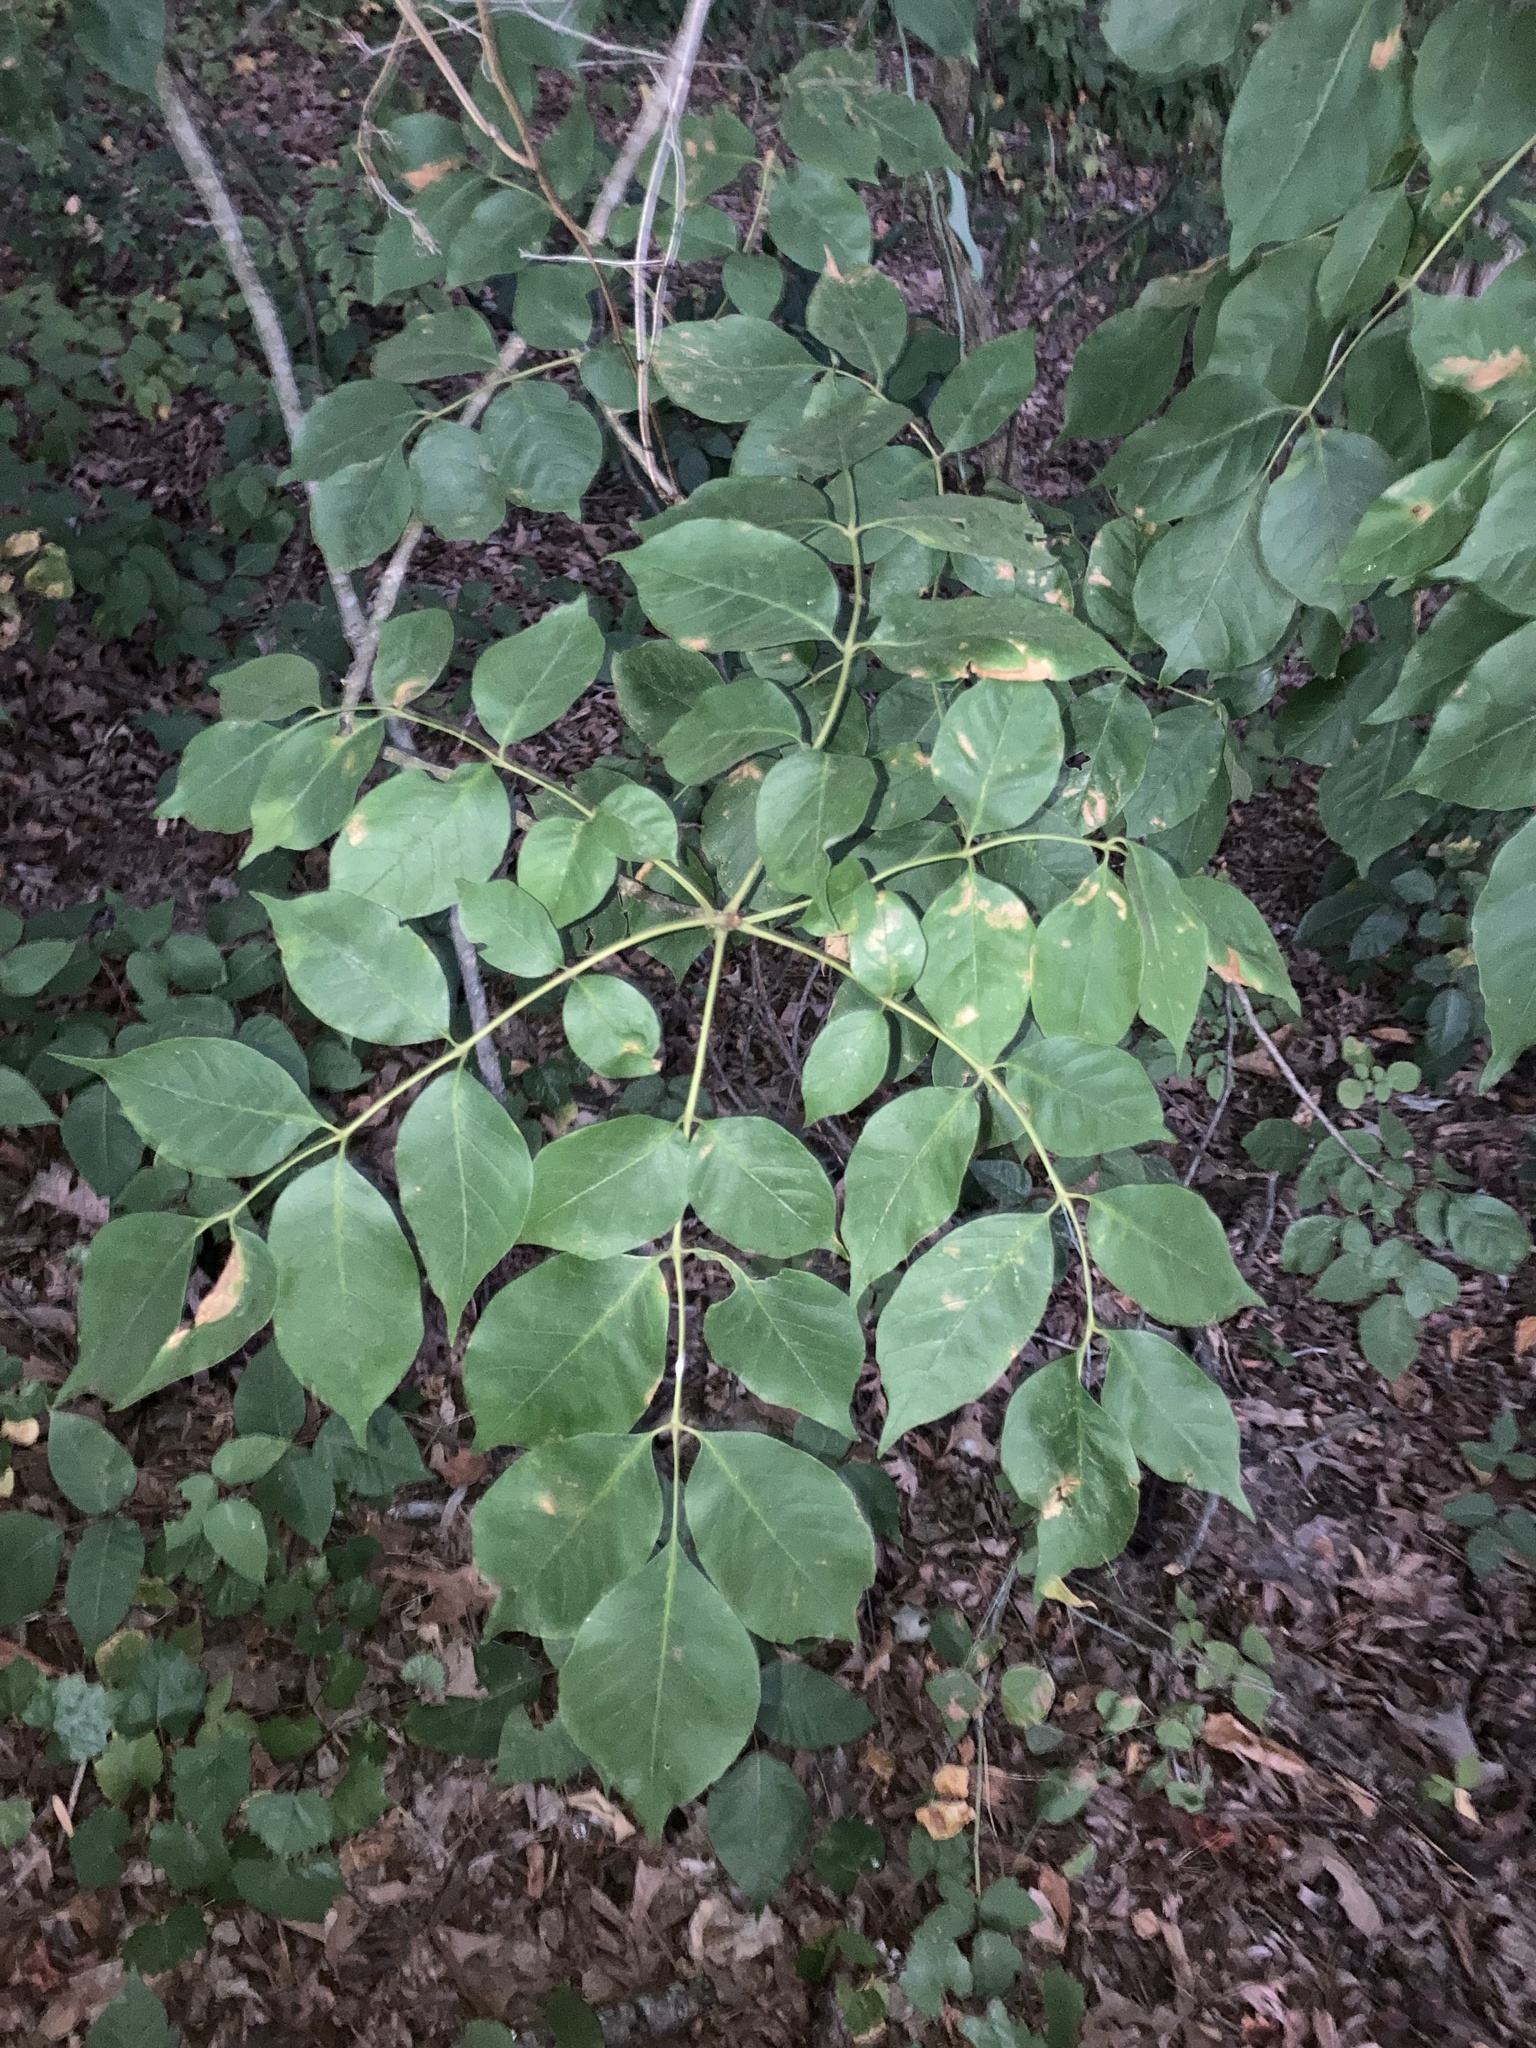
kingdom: Plantae
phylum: Tracheophyta
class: Magnoliopsida
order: Apiales
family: Araliaceae
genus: Aralia
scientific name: Aralia spinosa
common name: Hercules'-club
